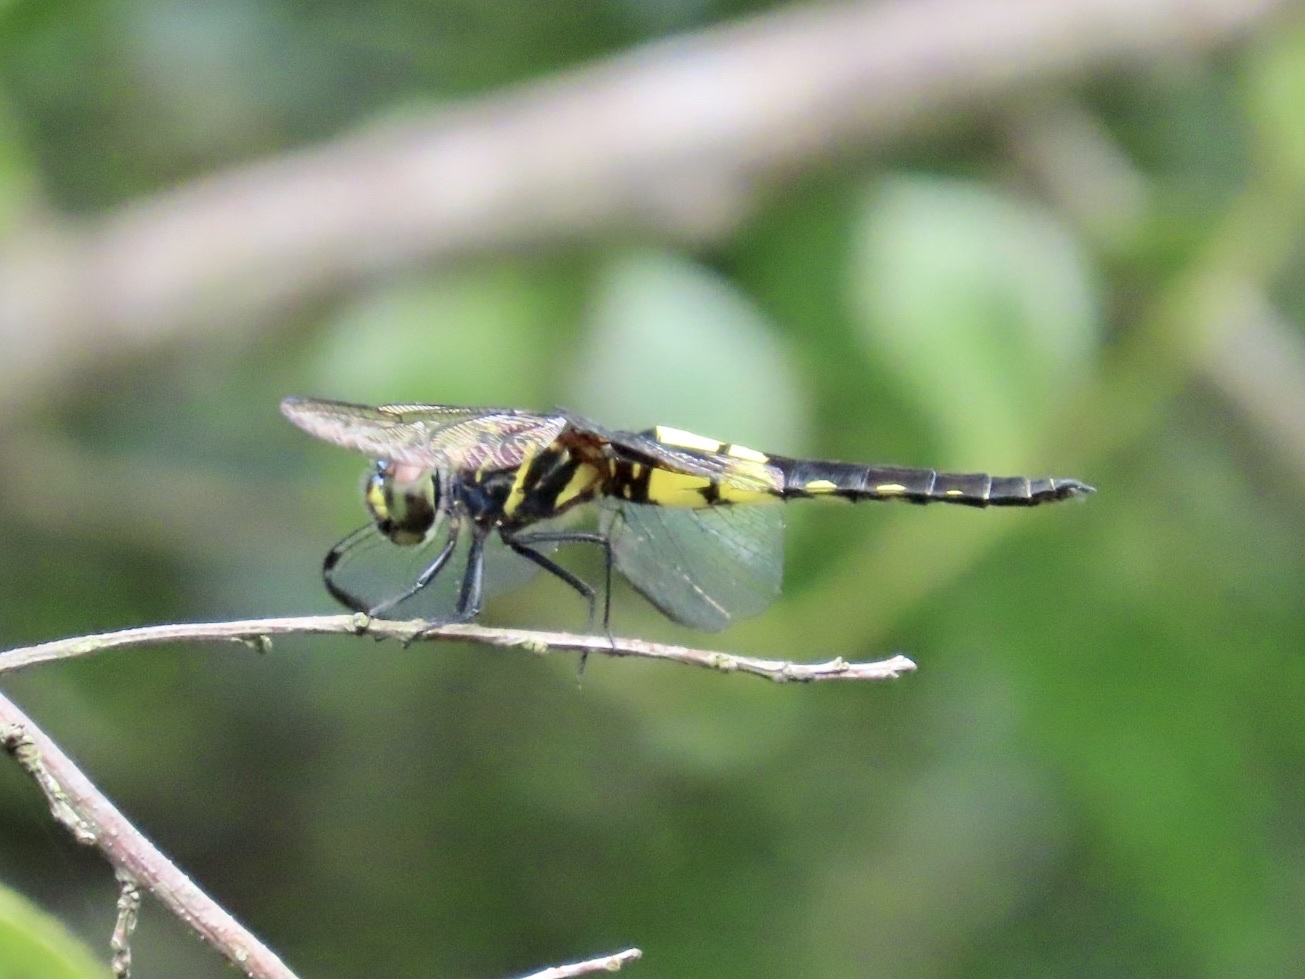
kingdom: Animalia
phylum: Arthropoda
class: Insecta
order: Odonata
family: Libellulidae
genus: Pseudothemis
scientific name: Pseudothemis zonata
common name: Pied skimmer
